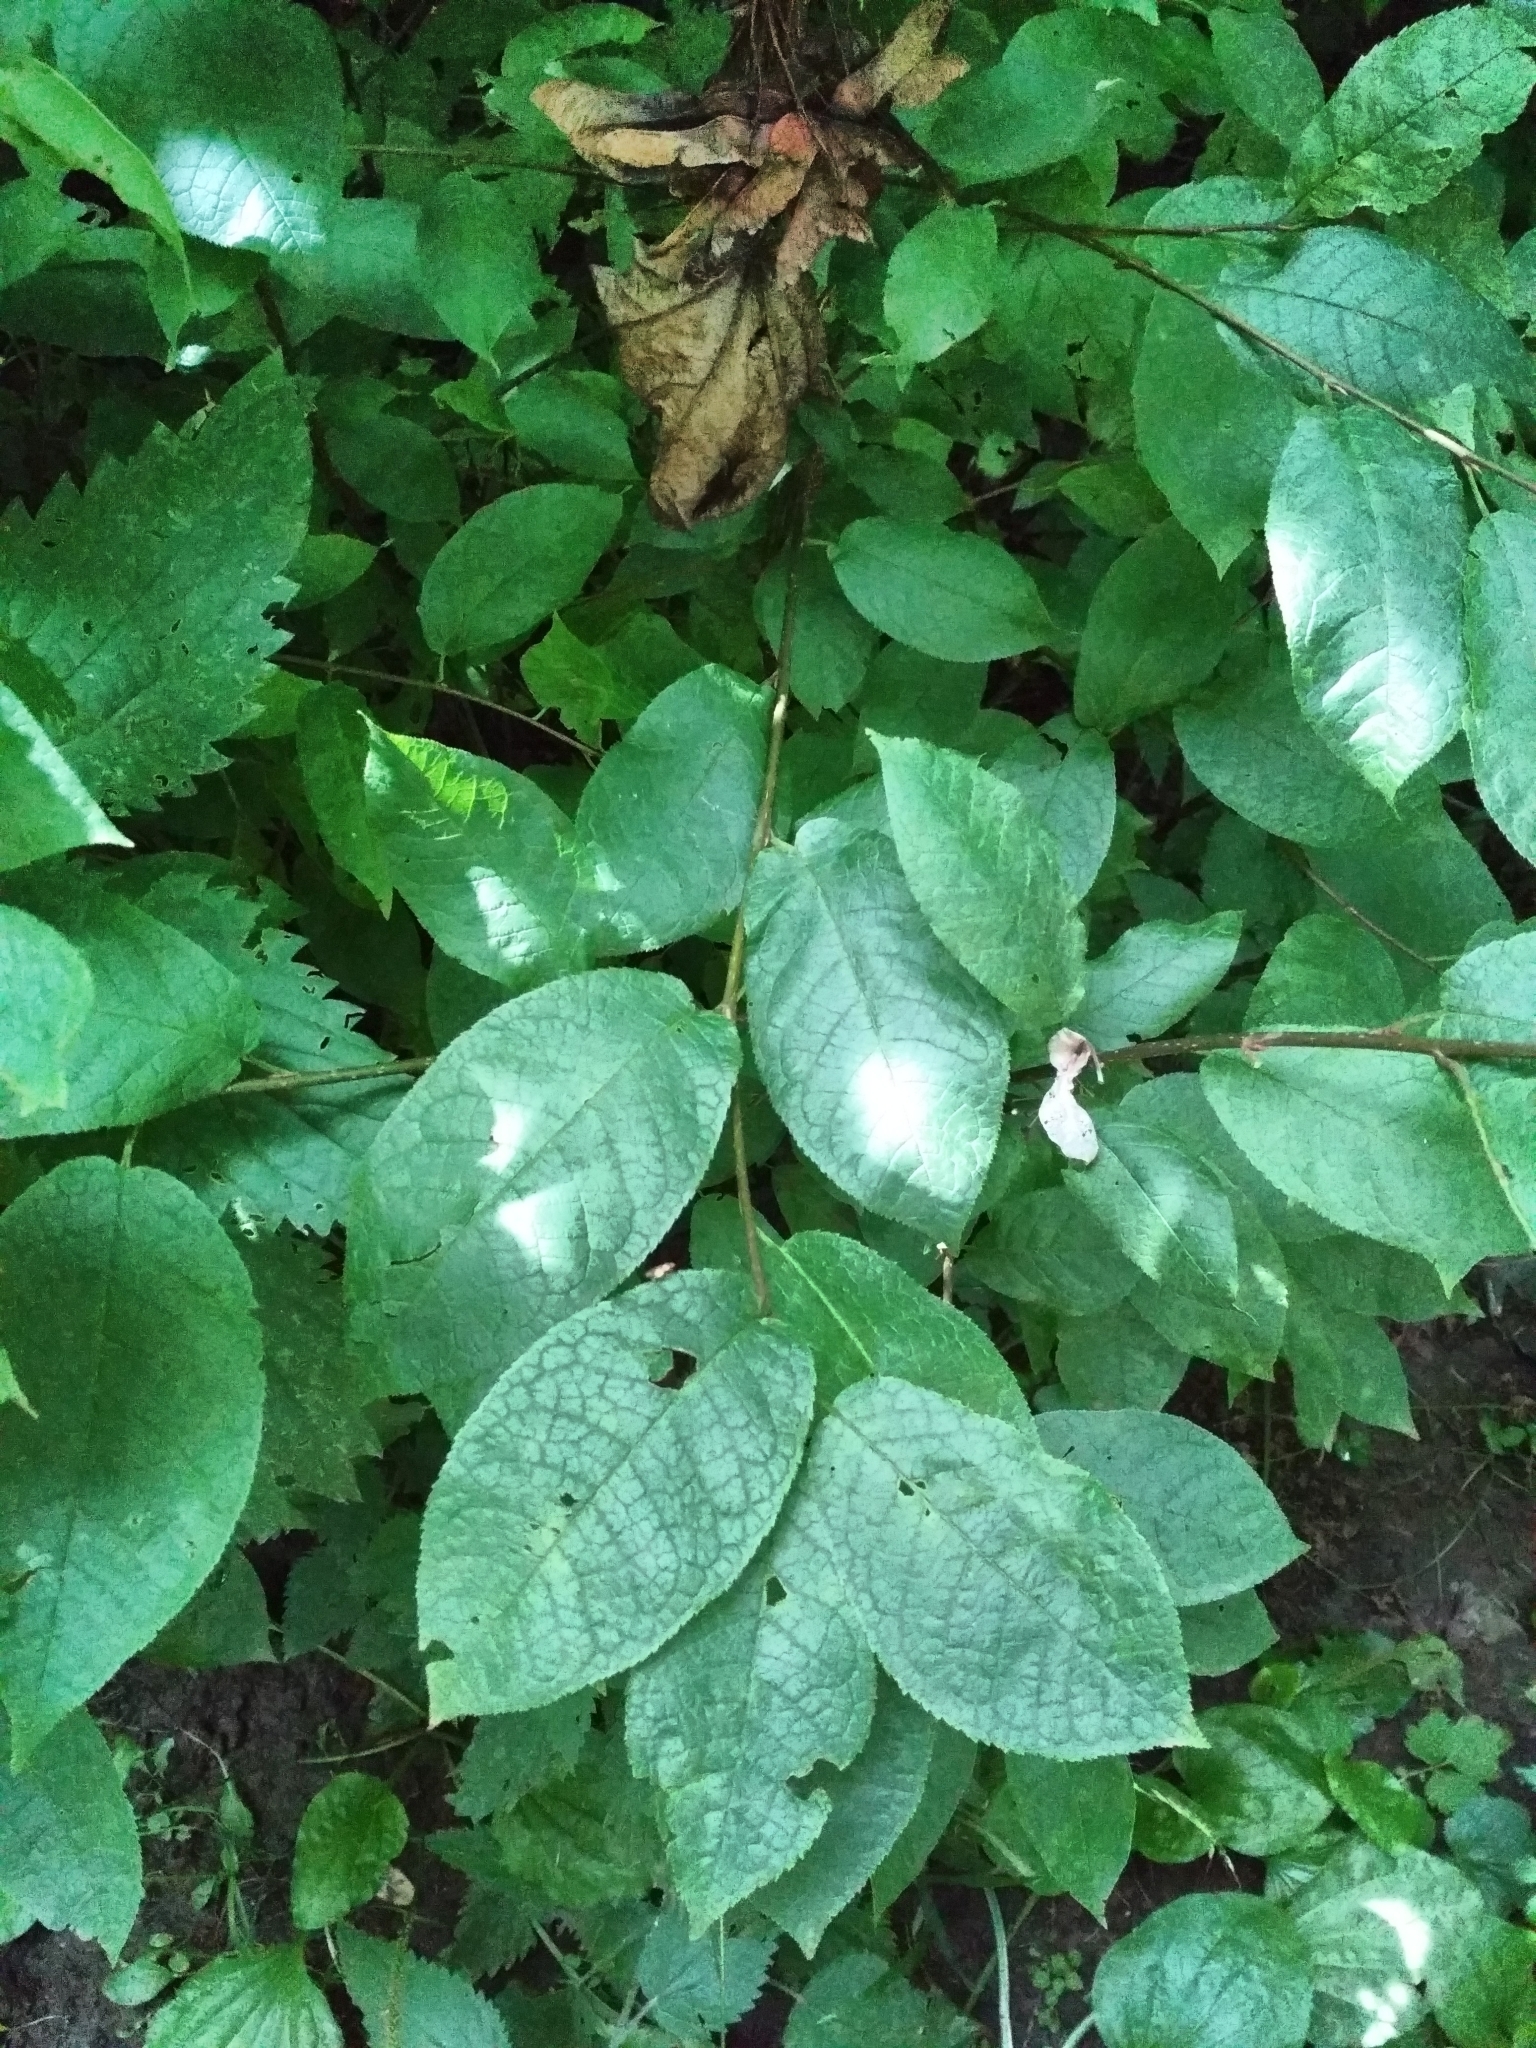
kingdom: Plantae
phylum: Tracheophyta
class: Magnoliopsida
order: Rosales
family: Rosaceae
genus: Prunus
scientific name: Prunus padus
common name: Bird cherry
